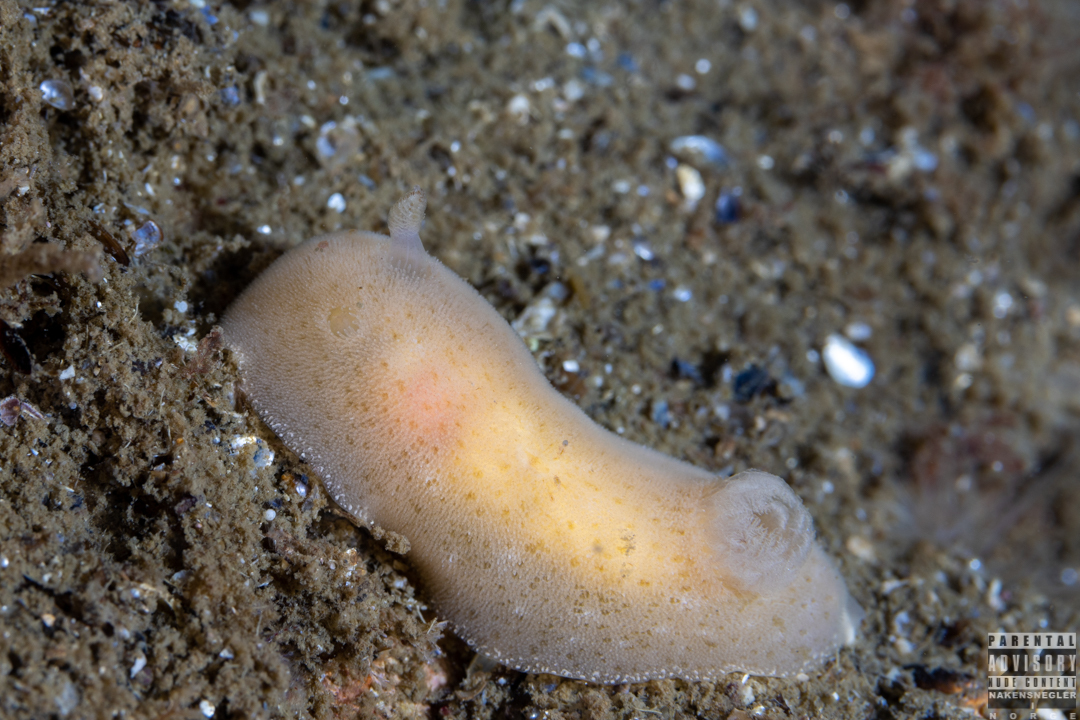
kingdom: Animalia
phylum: Mollusca
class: Gastropoda
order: Nudibranchia
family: Discodorididae
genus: Jorunna
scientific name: Jorunna tomentosa
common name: Grey sea slug
